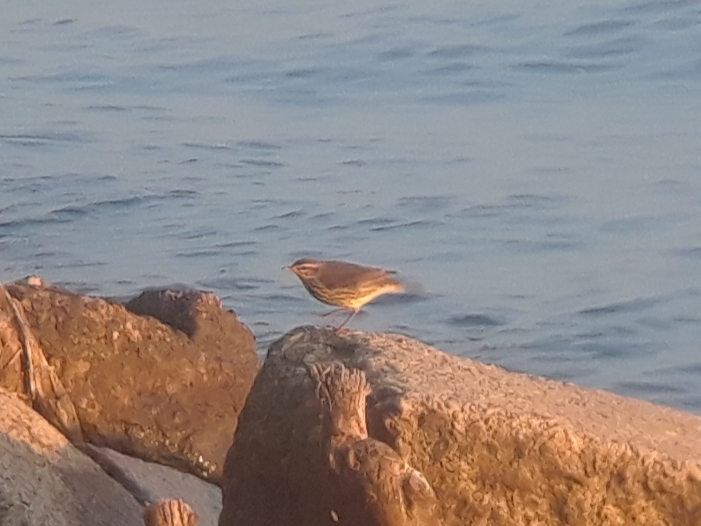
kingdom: Animalia
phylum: Chordata
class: Aves
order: Passeriformes
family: Parulidae
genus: Parkesia
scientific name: Parkesia noveboracensis
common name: Northern waterthrush
